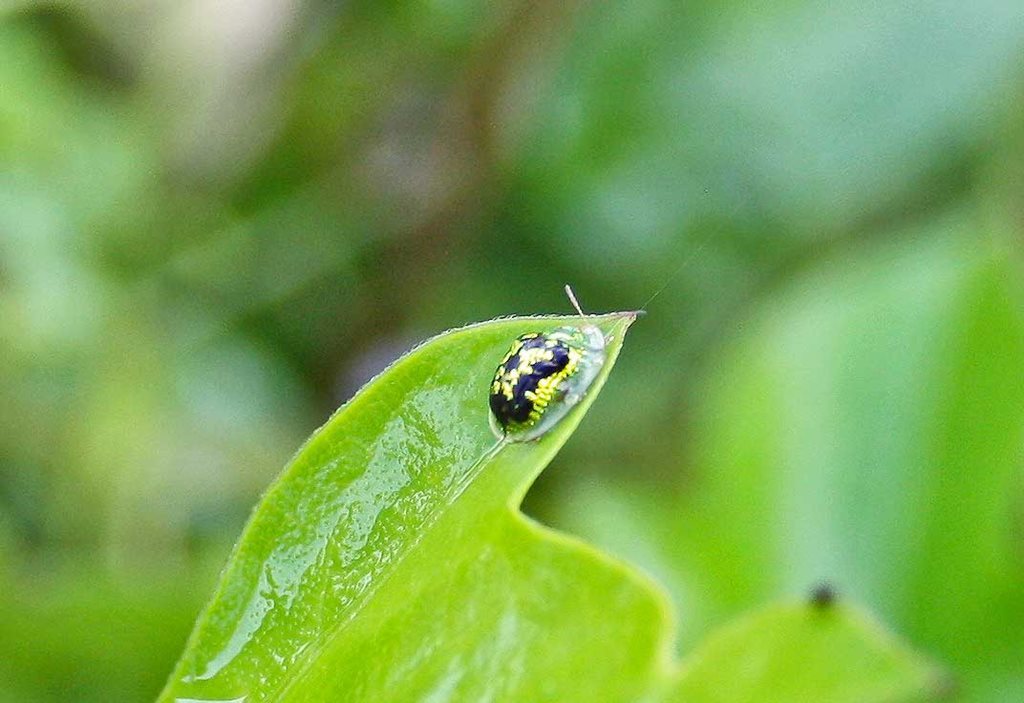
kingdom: Animalia
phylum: Arthropoda
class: Insecta
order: Coleoptera
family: Chrysomelidae
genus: Cassida
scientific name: Cassida diomma
